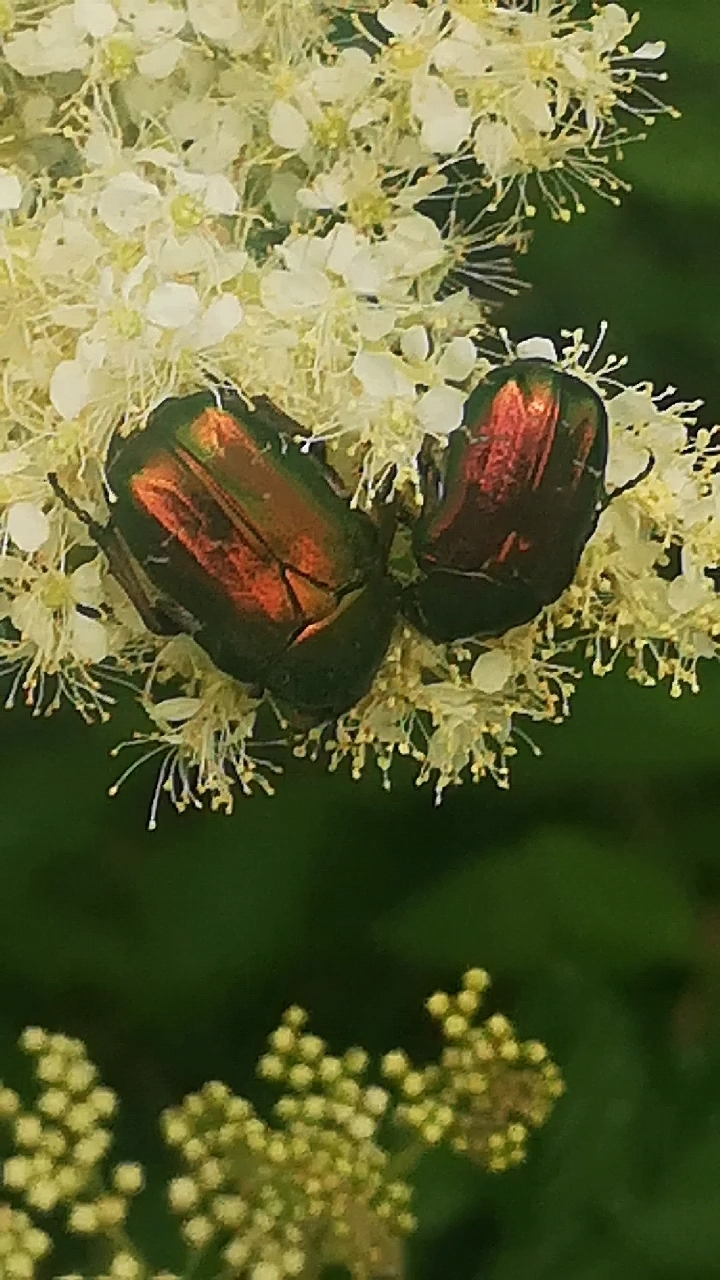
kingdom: Animalia
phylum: Arthropoda
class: Insecta
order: Coleoptera
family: Scarabaeidae
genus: Cetonia
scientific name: Cetonia aurata
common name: Rose chafer
